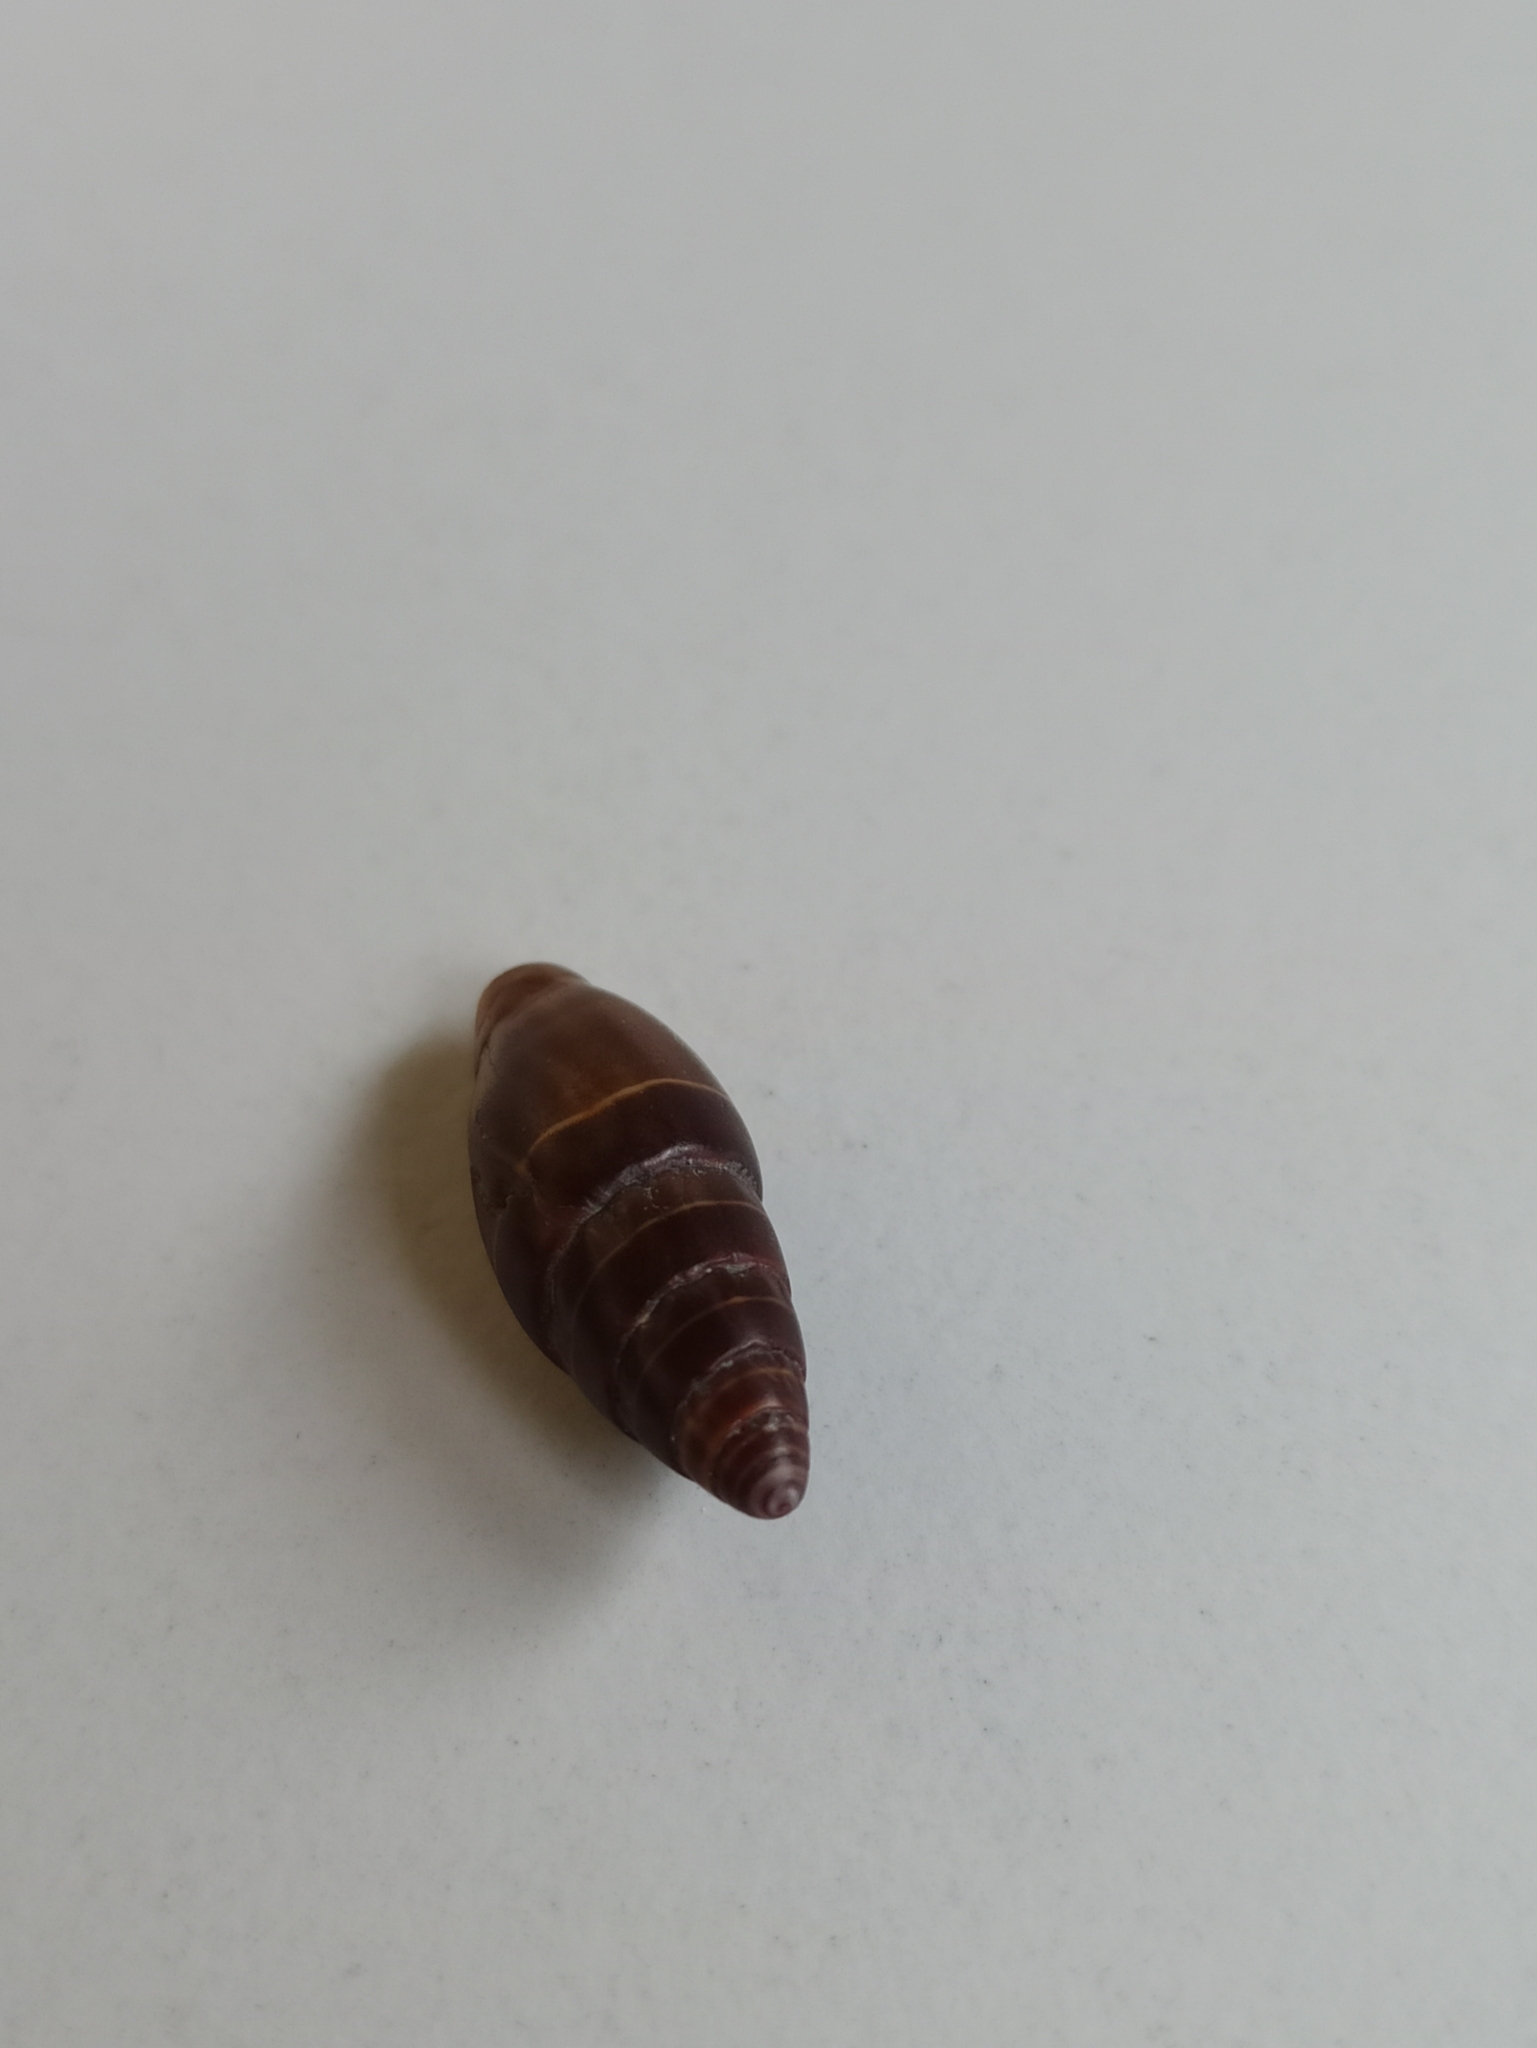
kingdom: Animalia
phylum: Mollusca
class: Gastropoda
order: Neogastropoda
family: Costellariidae
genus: Pusia
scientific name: Pusia ebenus
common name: Brown mitre
